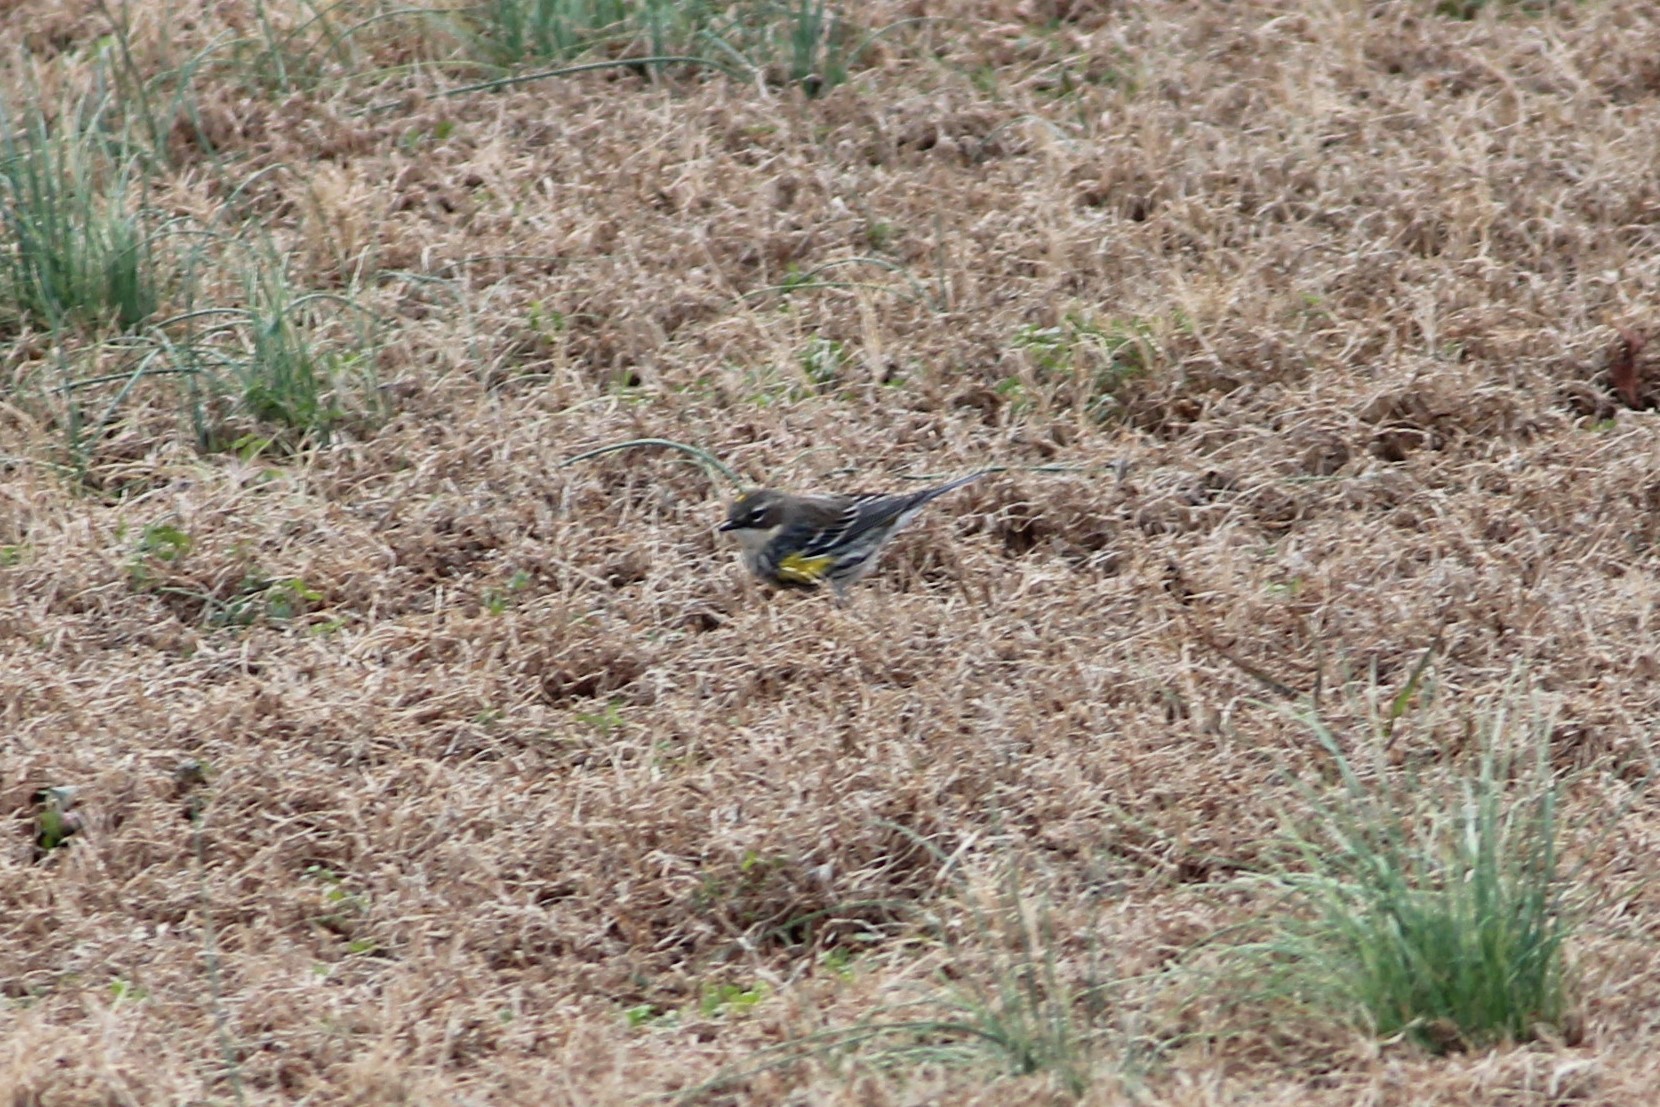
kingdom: Animalia
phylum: Chordata
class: Aves
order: Passeriformes
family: Parulidae
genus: Setophaga
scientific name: Setophaga coronata
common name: Myrtle warbler
